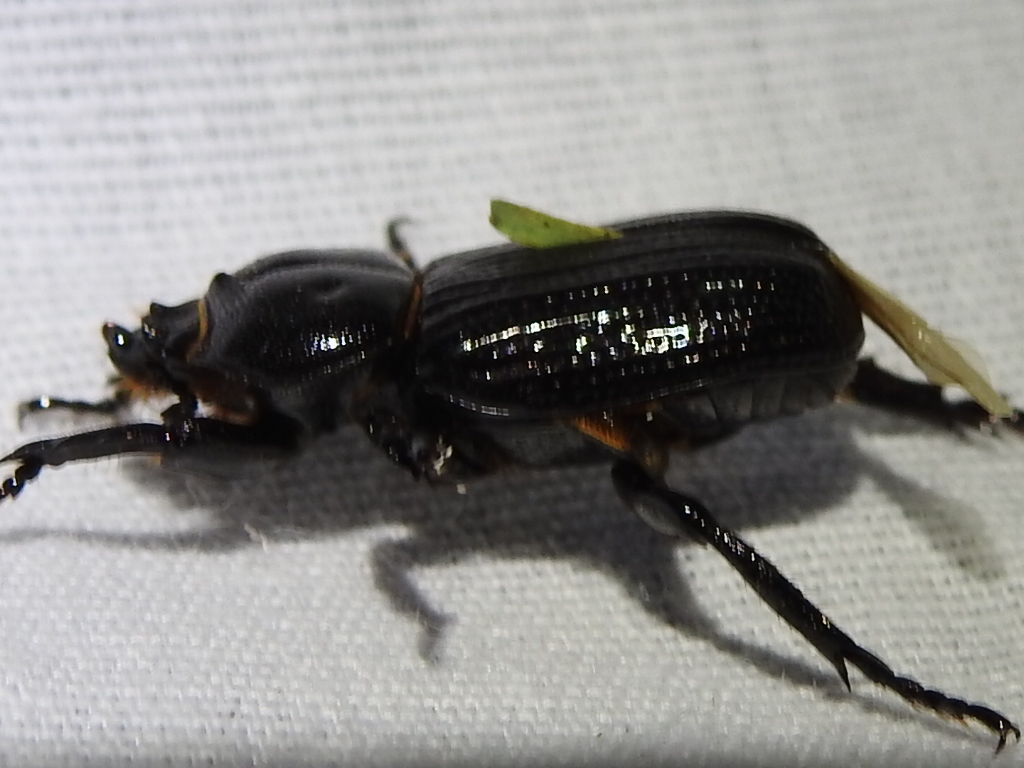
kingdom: Animalia
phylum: Arthropoda
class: Insecta
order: Coleoptera
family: Scarabaeidae
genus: Phileurus
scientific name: Phileurus valgus
